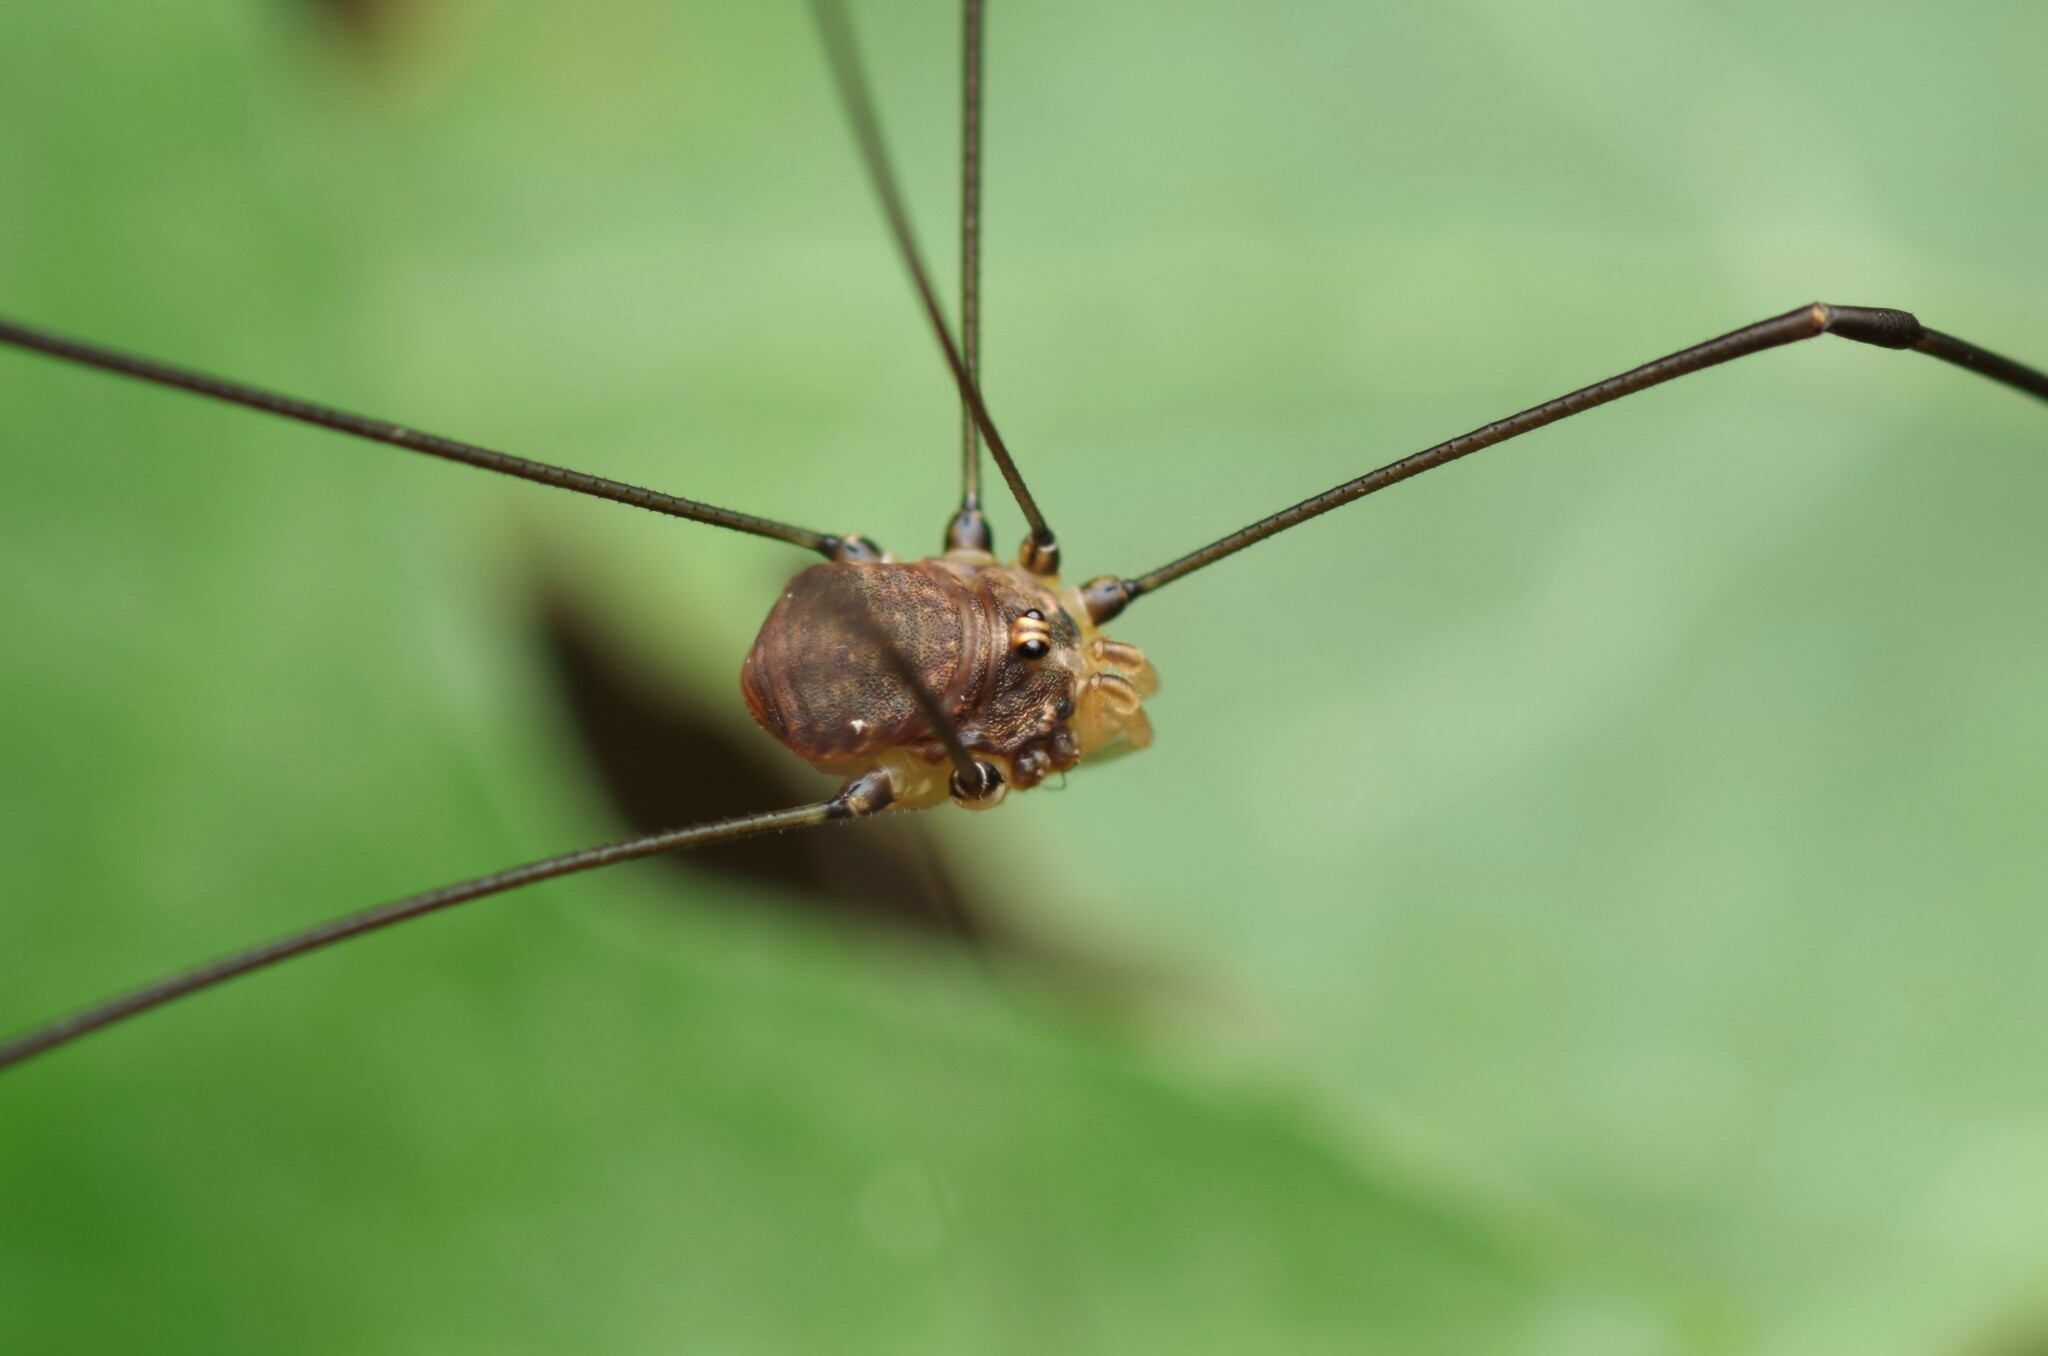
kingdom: Animalia
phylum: Arthropoda
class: Arachnida
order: Opiliones
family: Sclerosomatidae
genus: Leiobunum
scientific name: Leiobunum blackwalli
